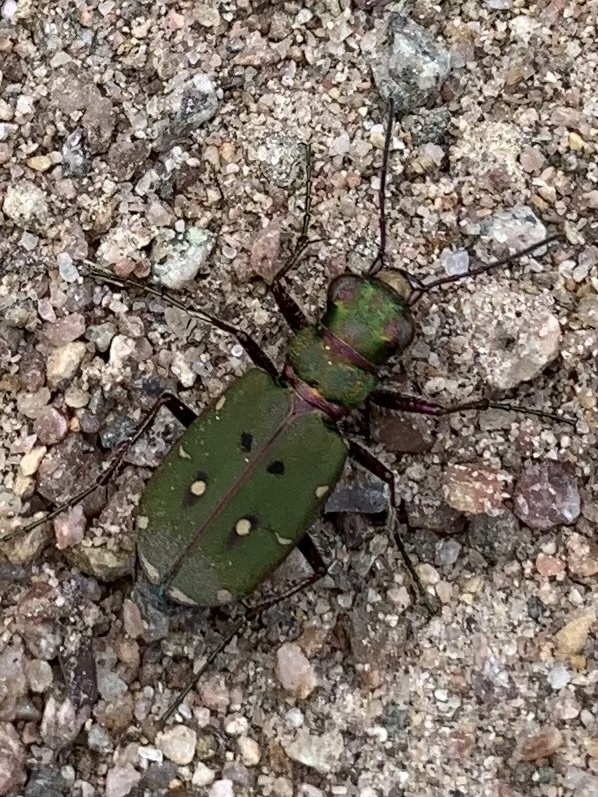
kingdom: Animalia
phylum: Arthropoda
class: Insecta
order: Coleoptera
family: Carabidae
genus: Cicindela
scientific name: Cicindela campestris
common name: Common tiger beetle
